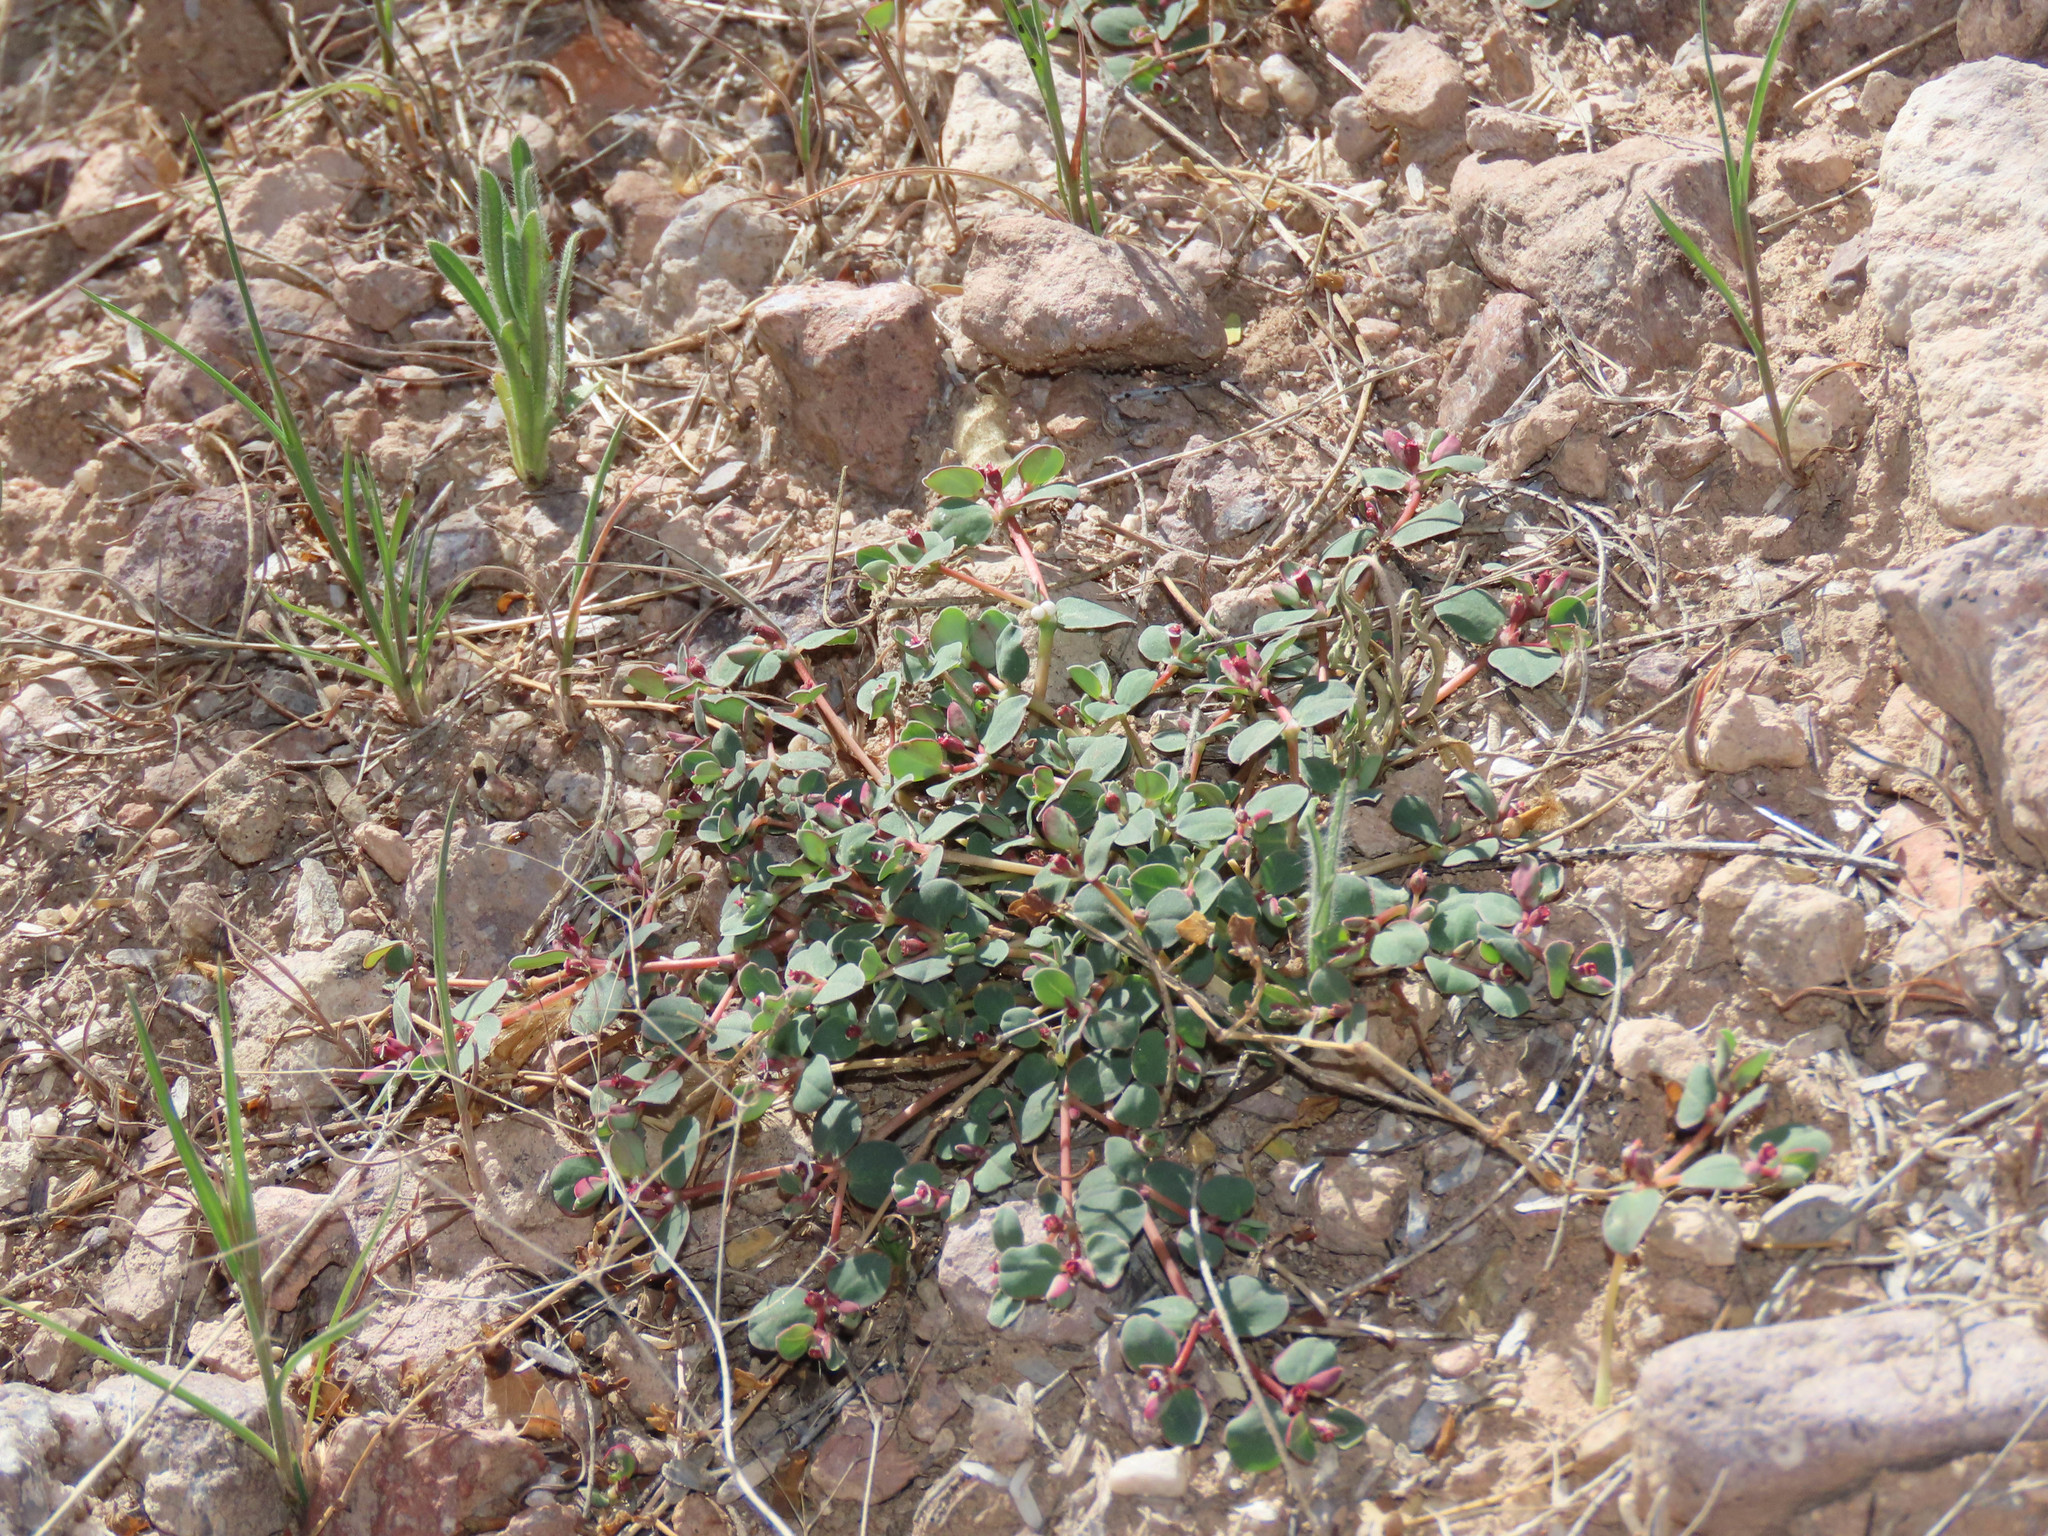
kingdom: Plantae
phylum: Tracheophyta
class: Magnoliopsida
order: Malpighiales
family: Euphorbiaceae
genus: Euphorbia
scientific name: Euphorbia albomarginata
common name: Whitemargin sandmat
